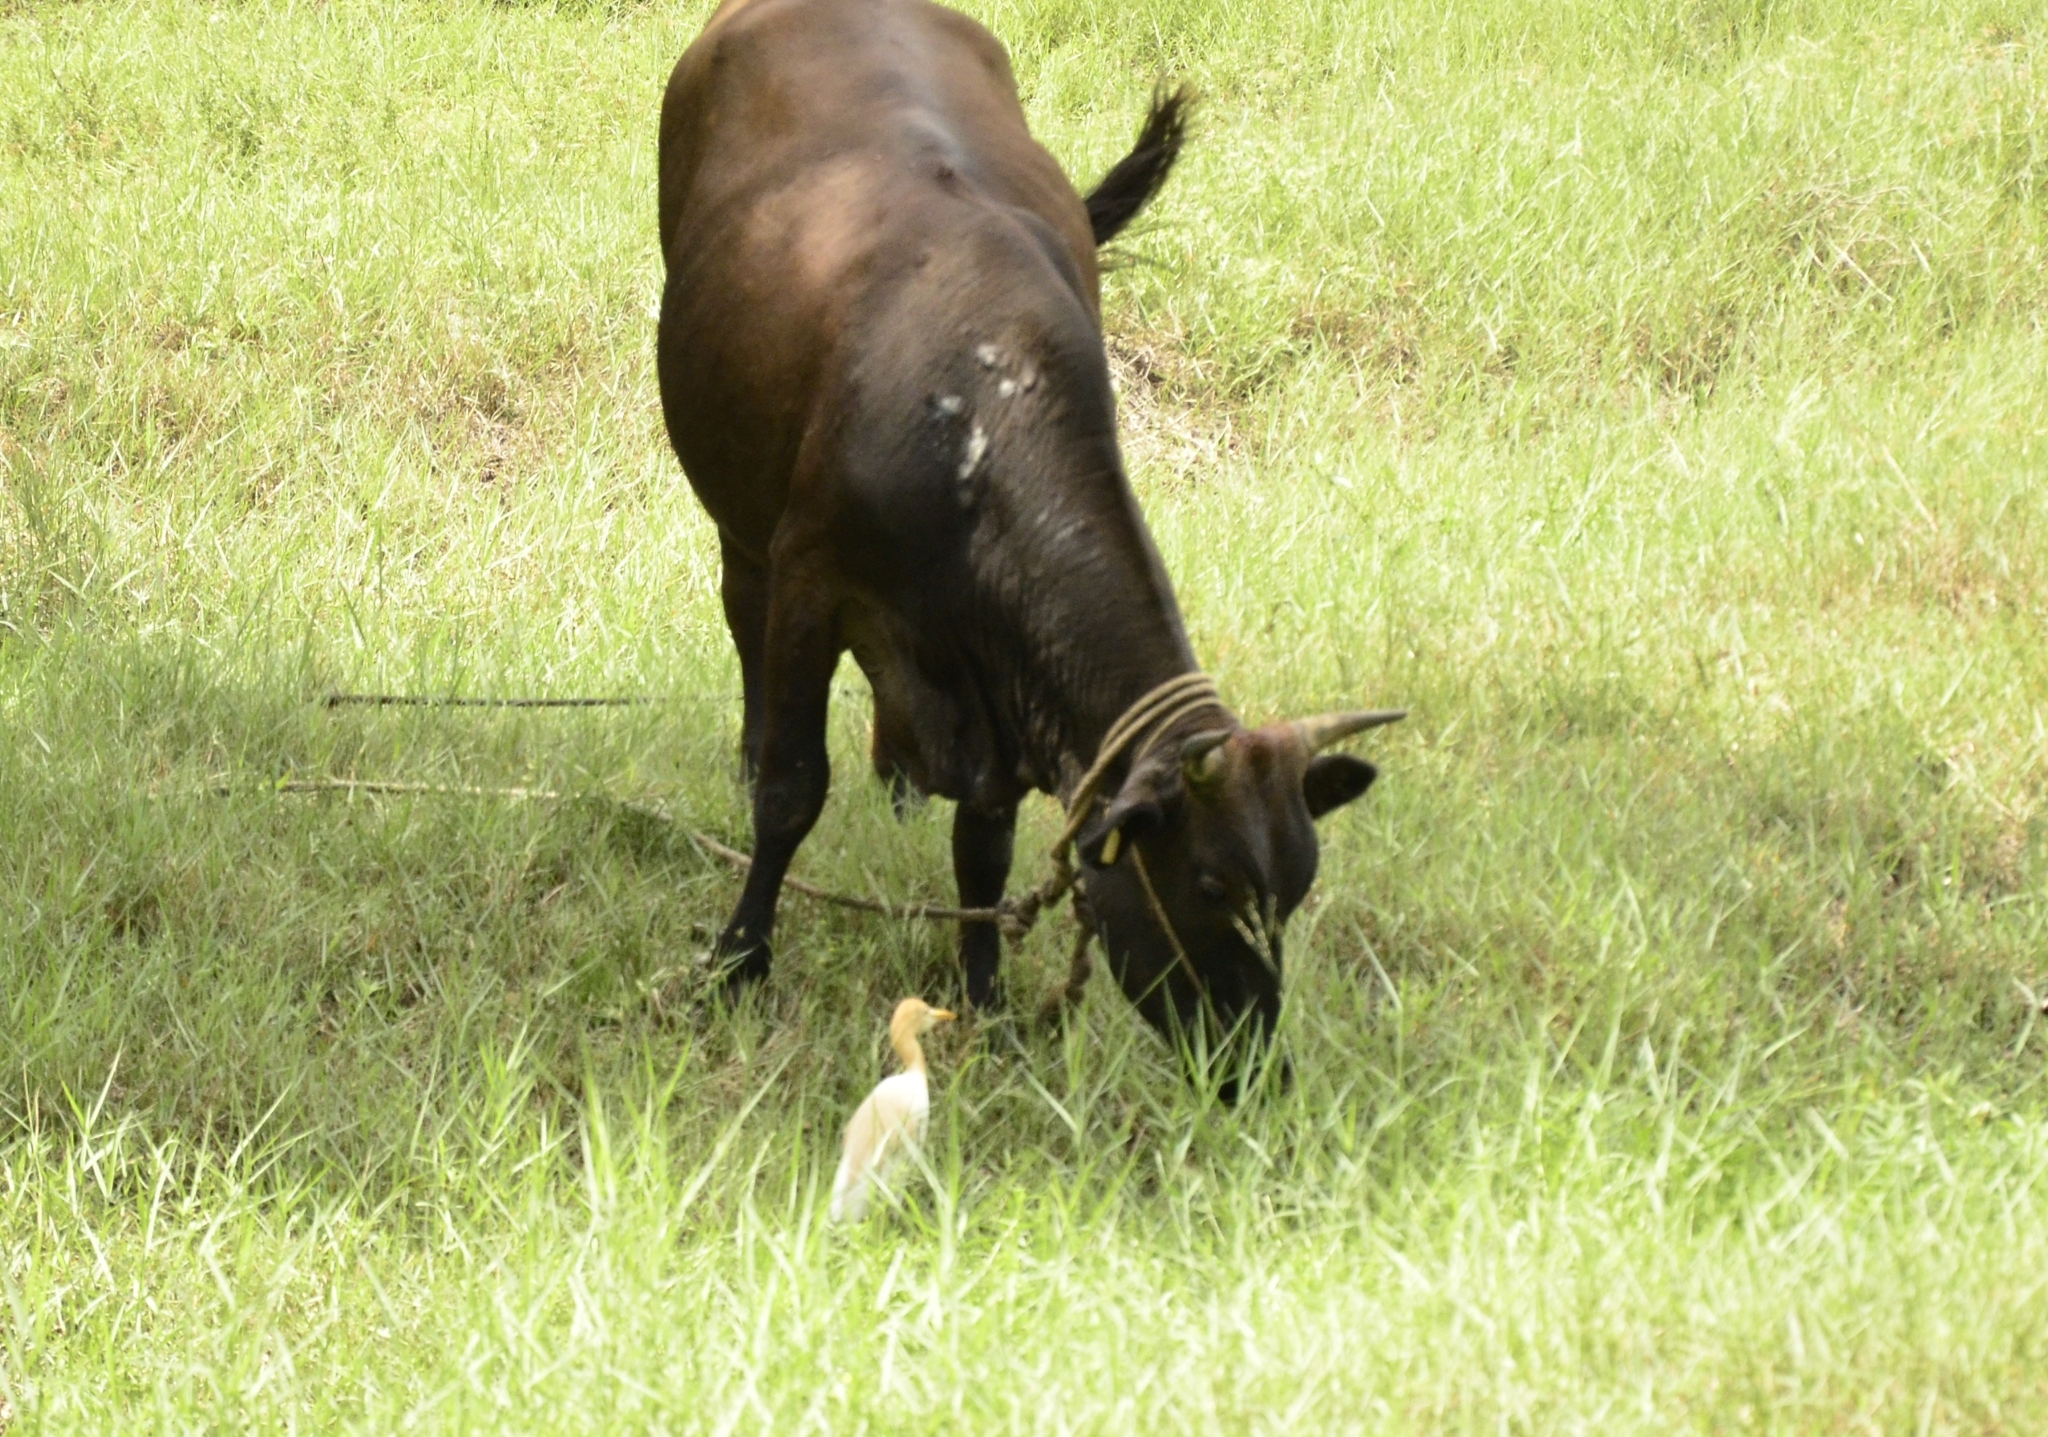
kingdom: Animalia
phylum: Chordata
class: Aves
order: Pelecaniformes
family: Ardeidae
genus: Bubulcus
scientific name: Bubulcus coromandus
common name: Eastern cattle egret
